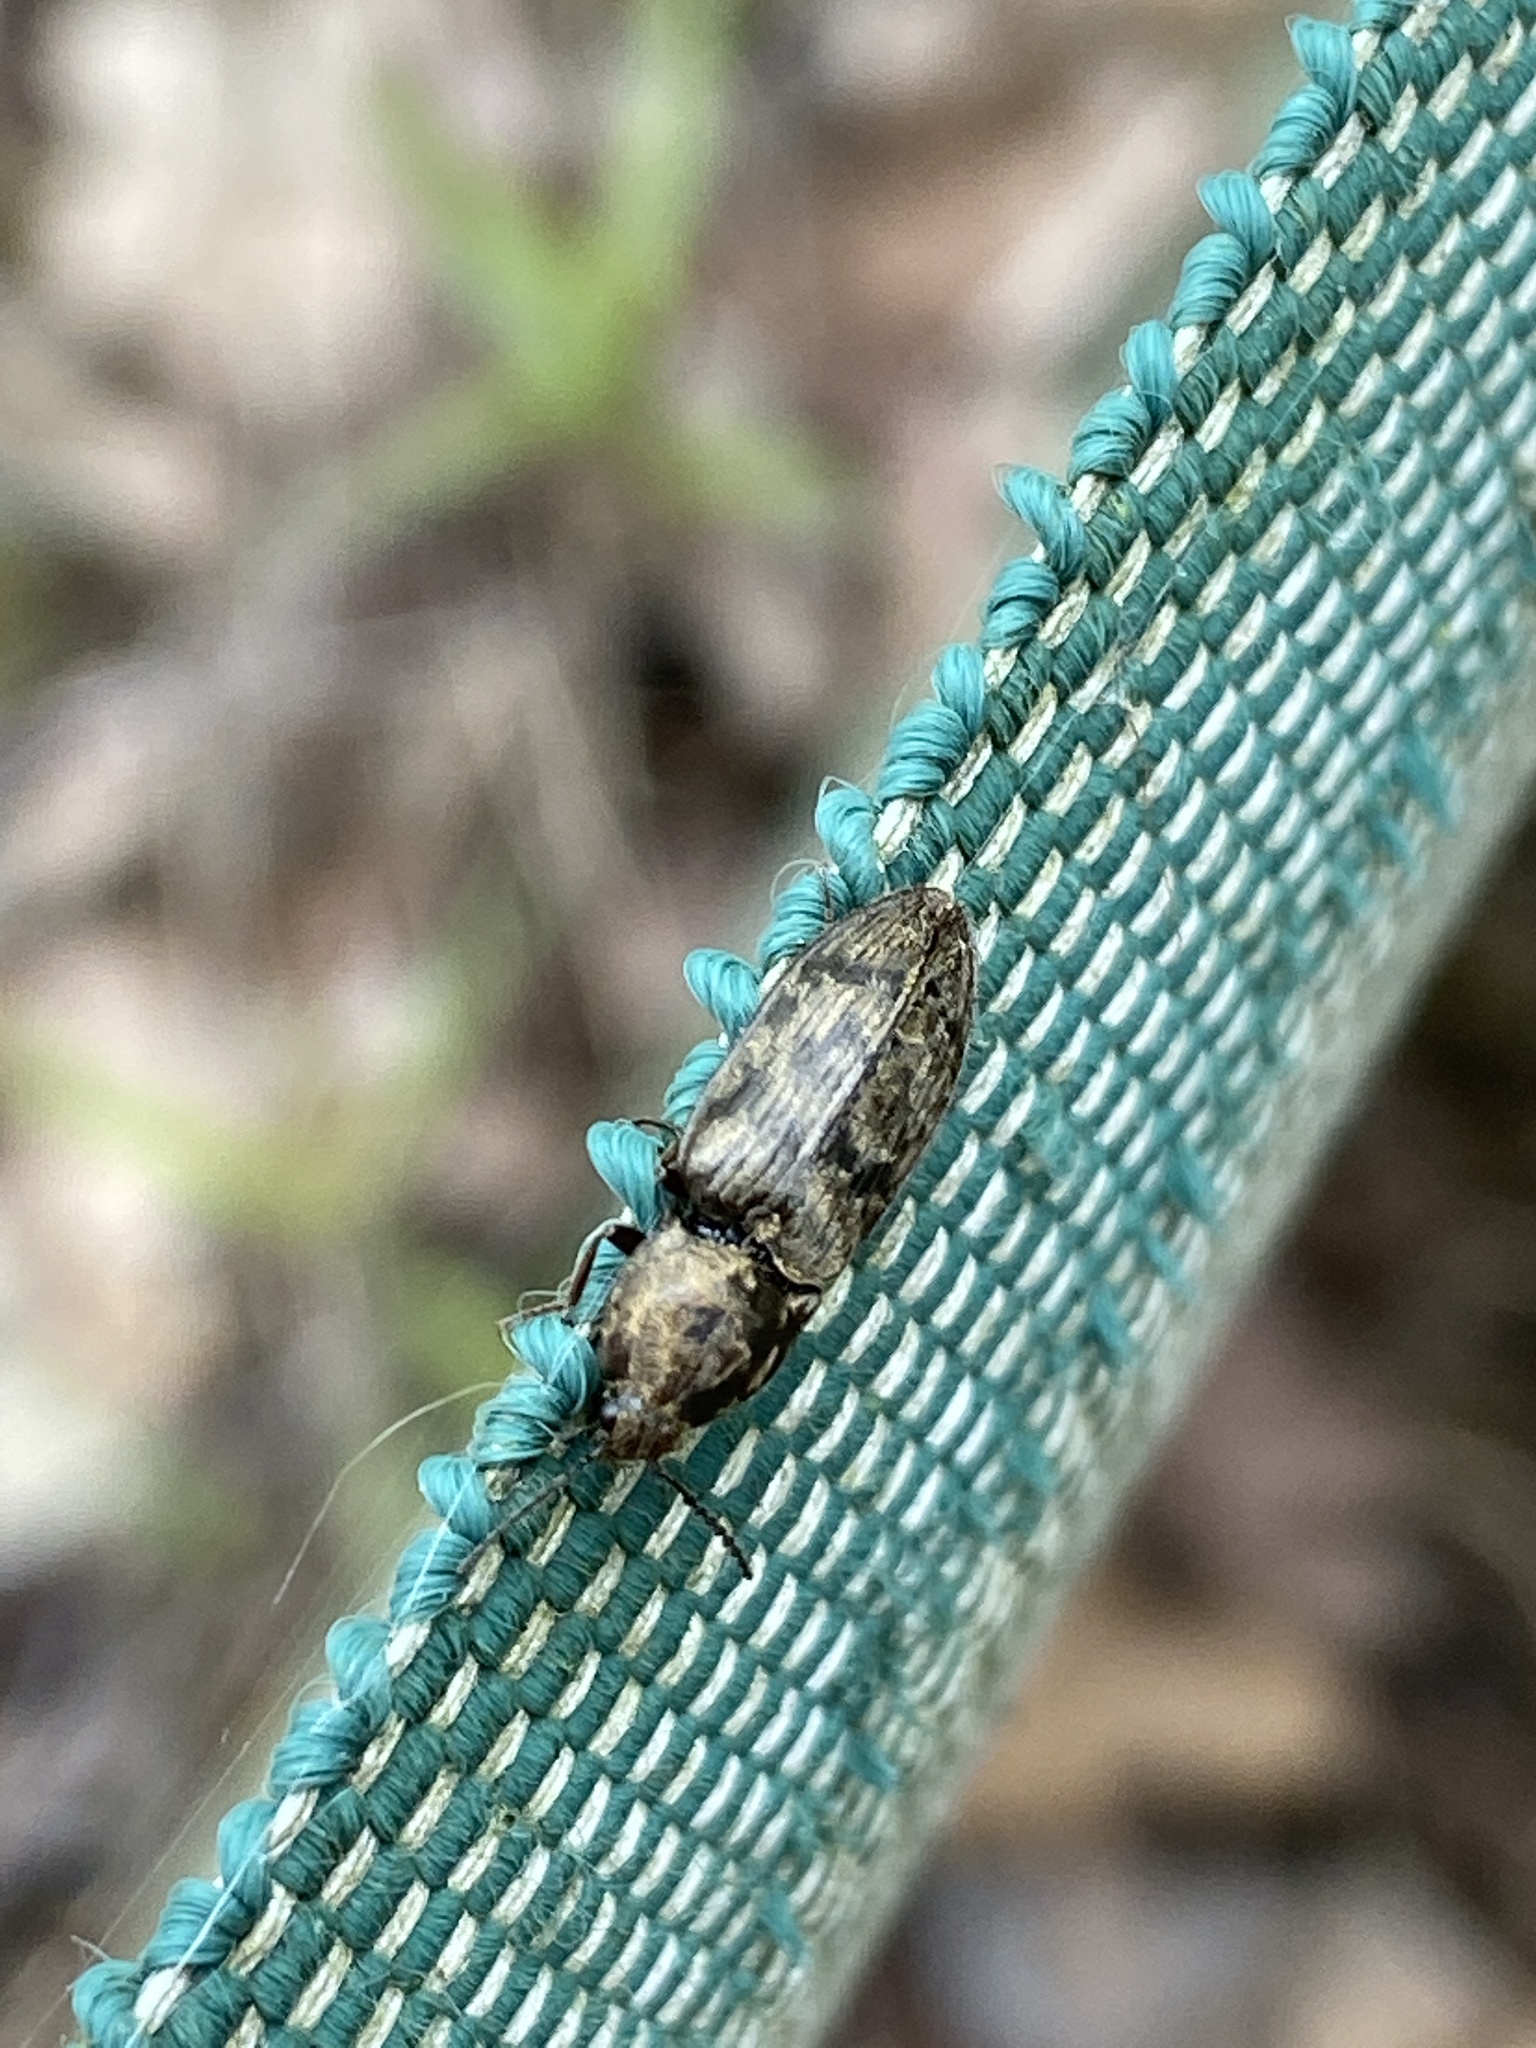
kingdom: Animalia
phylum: Arthropoda
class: Insecta
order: Coleoptera
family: Elateridae
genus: Prosternon
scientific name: Prosternon tessellatum
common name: Chequered click beetle
